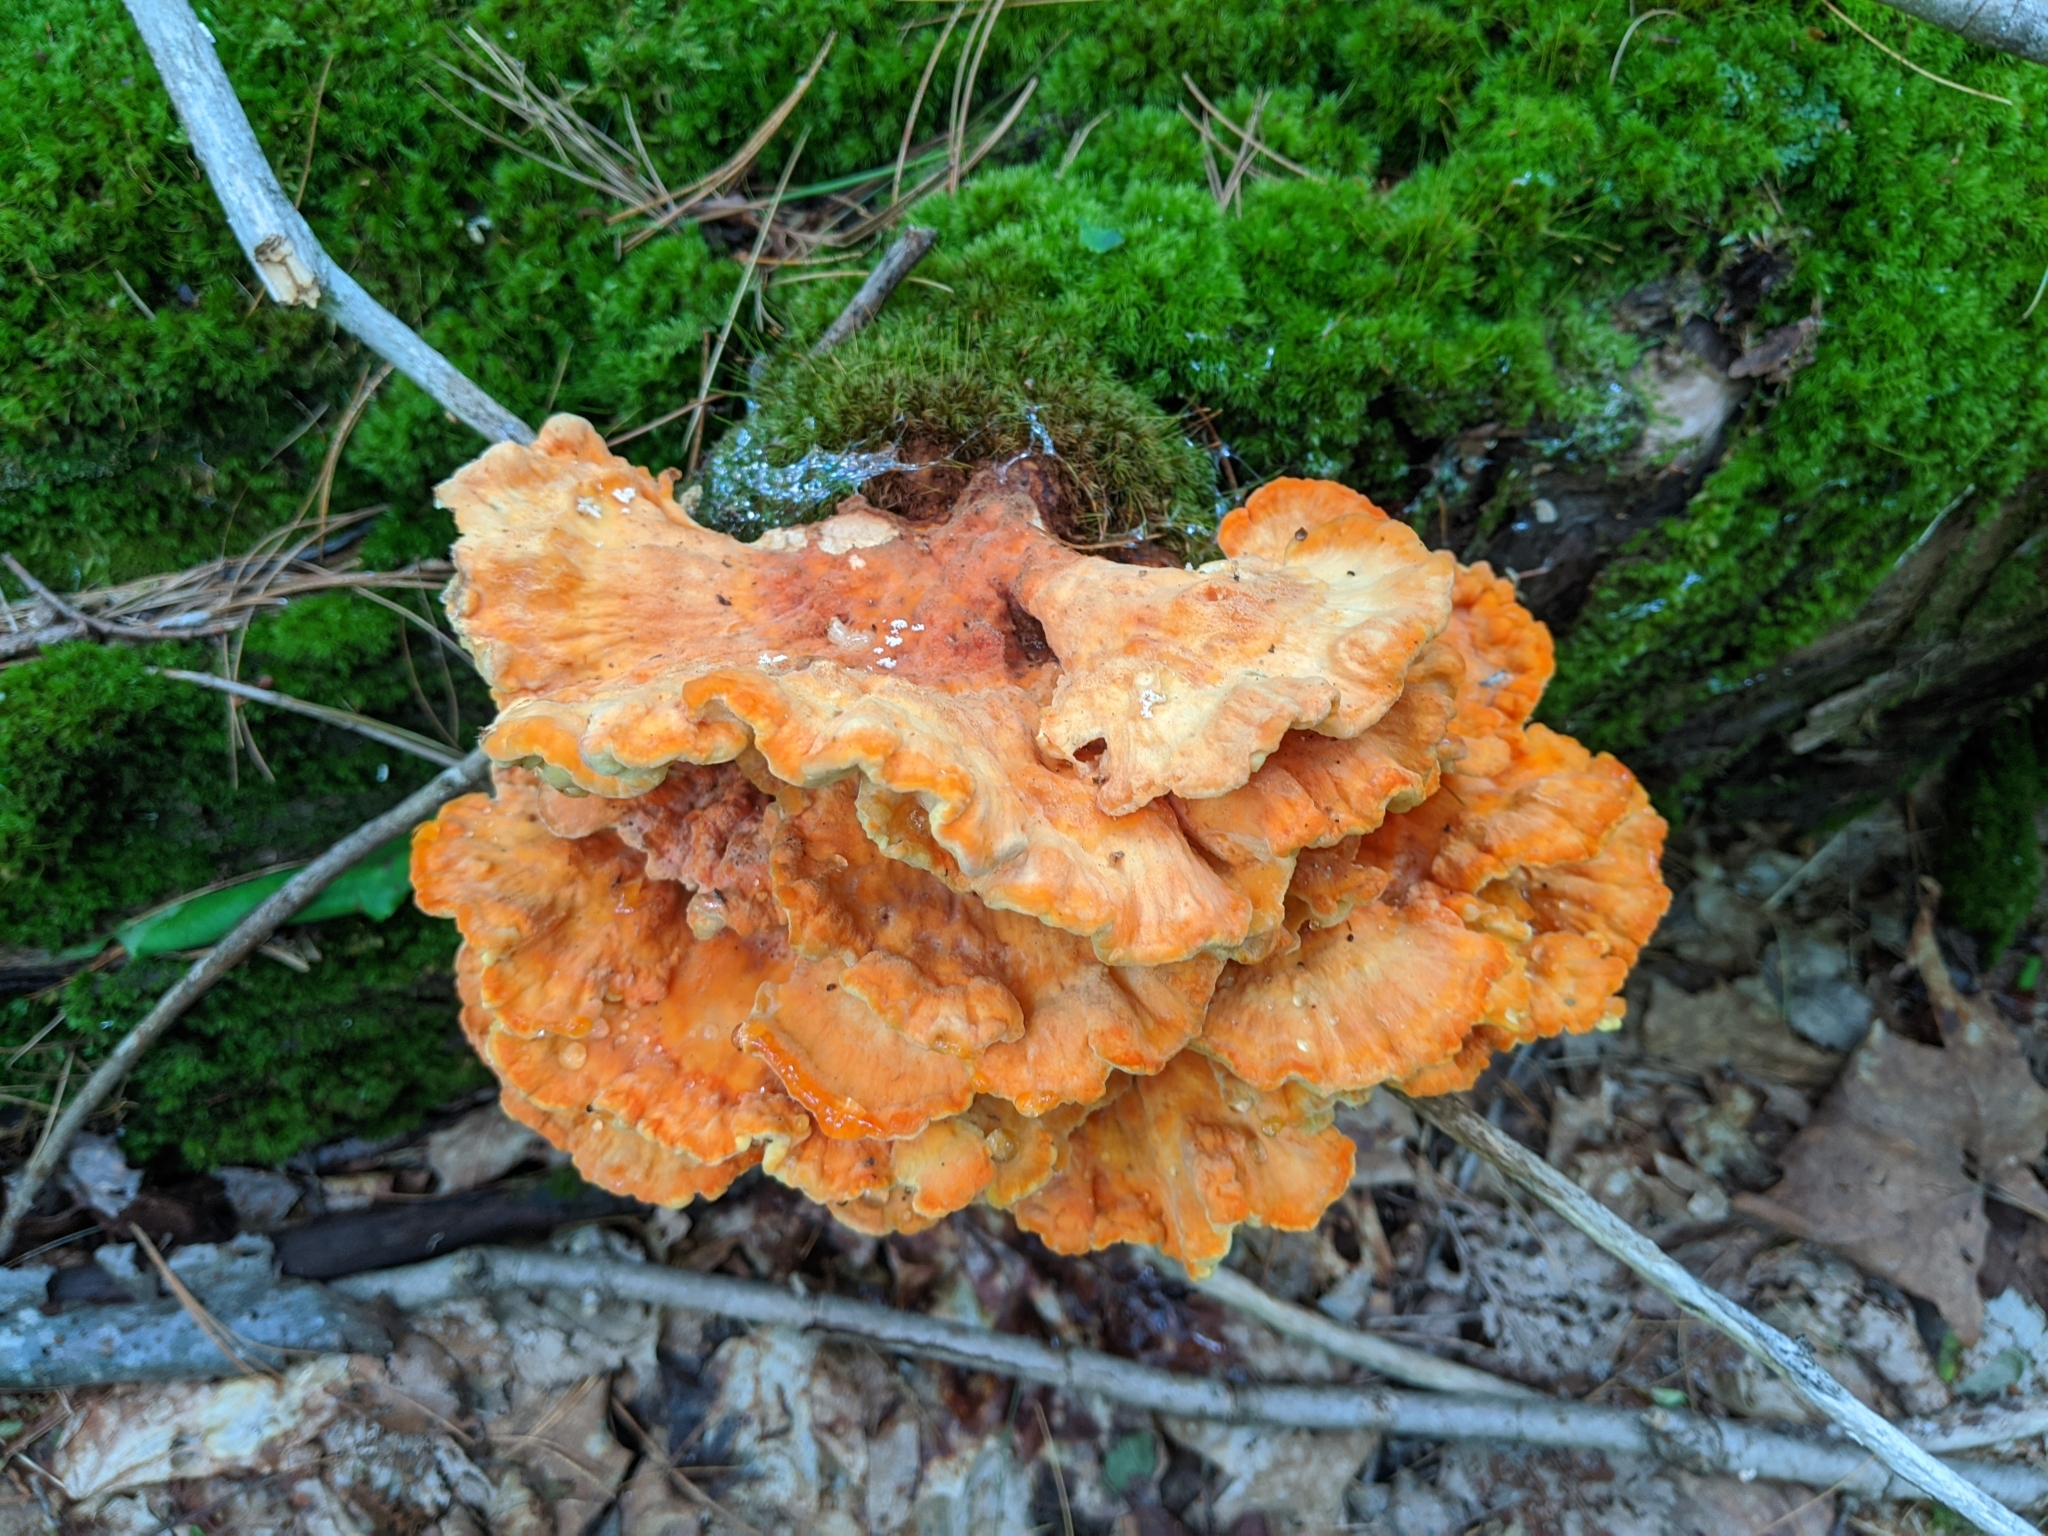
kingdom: Fungi
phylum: Basidiomycota
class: Agaricomycetes
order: Polyporales
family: Laetiporaceae
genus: Laetiporus
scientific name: Laetiporus sulphureus
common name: Chicken of the woods
